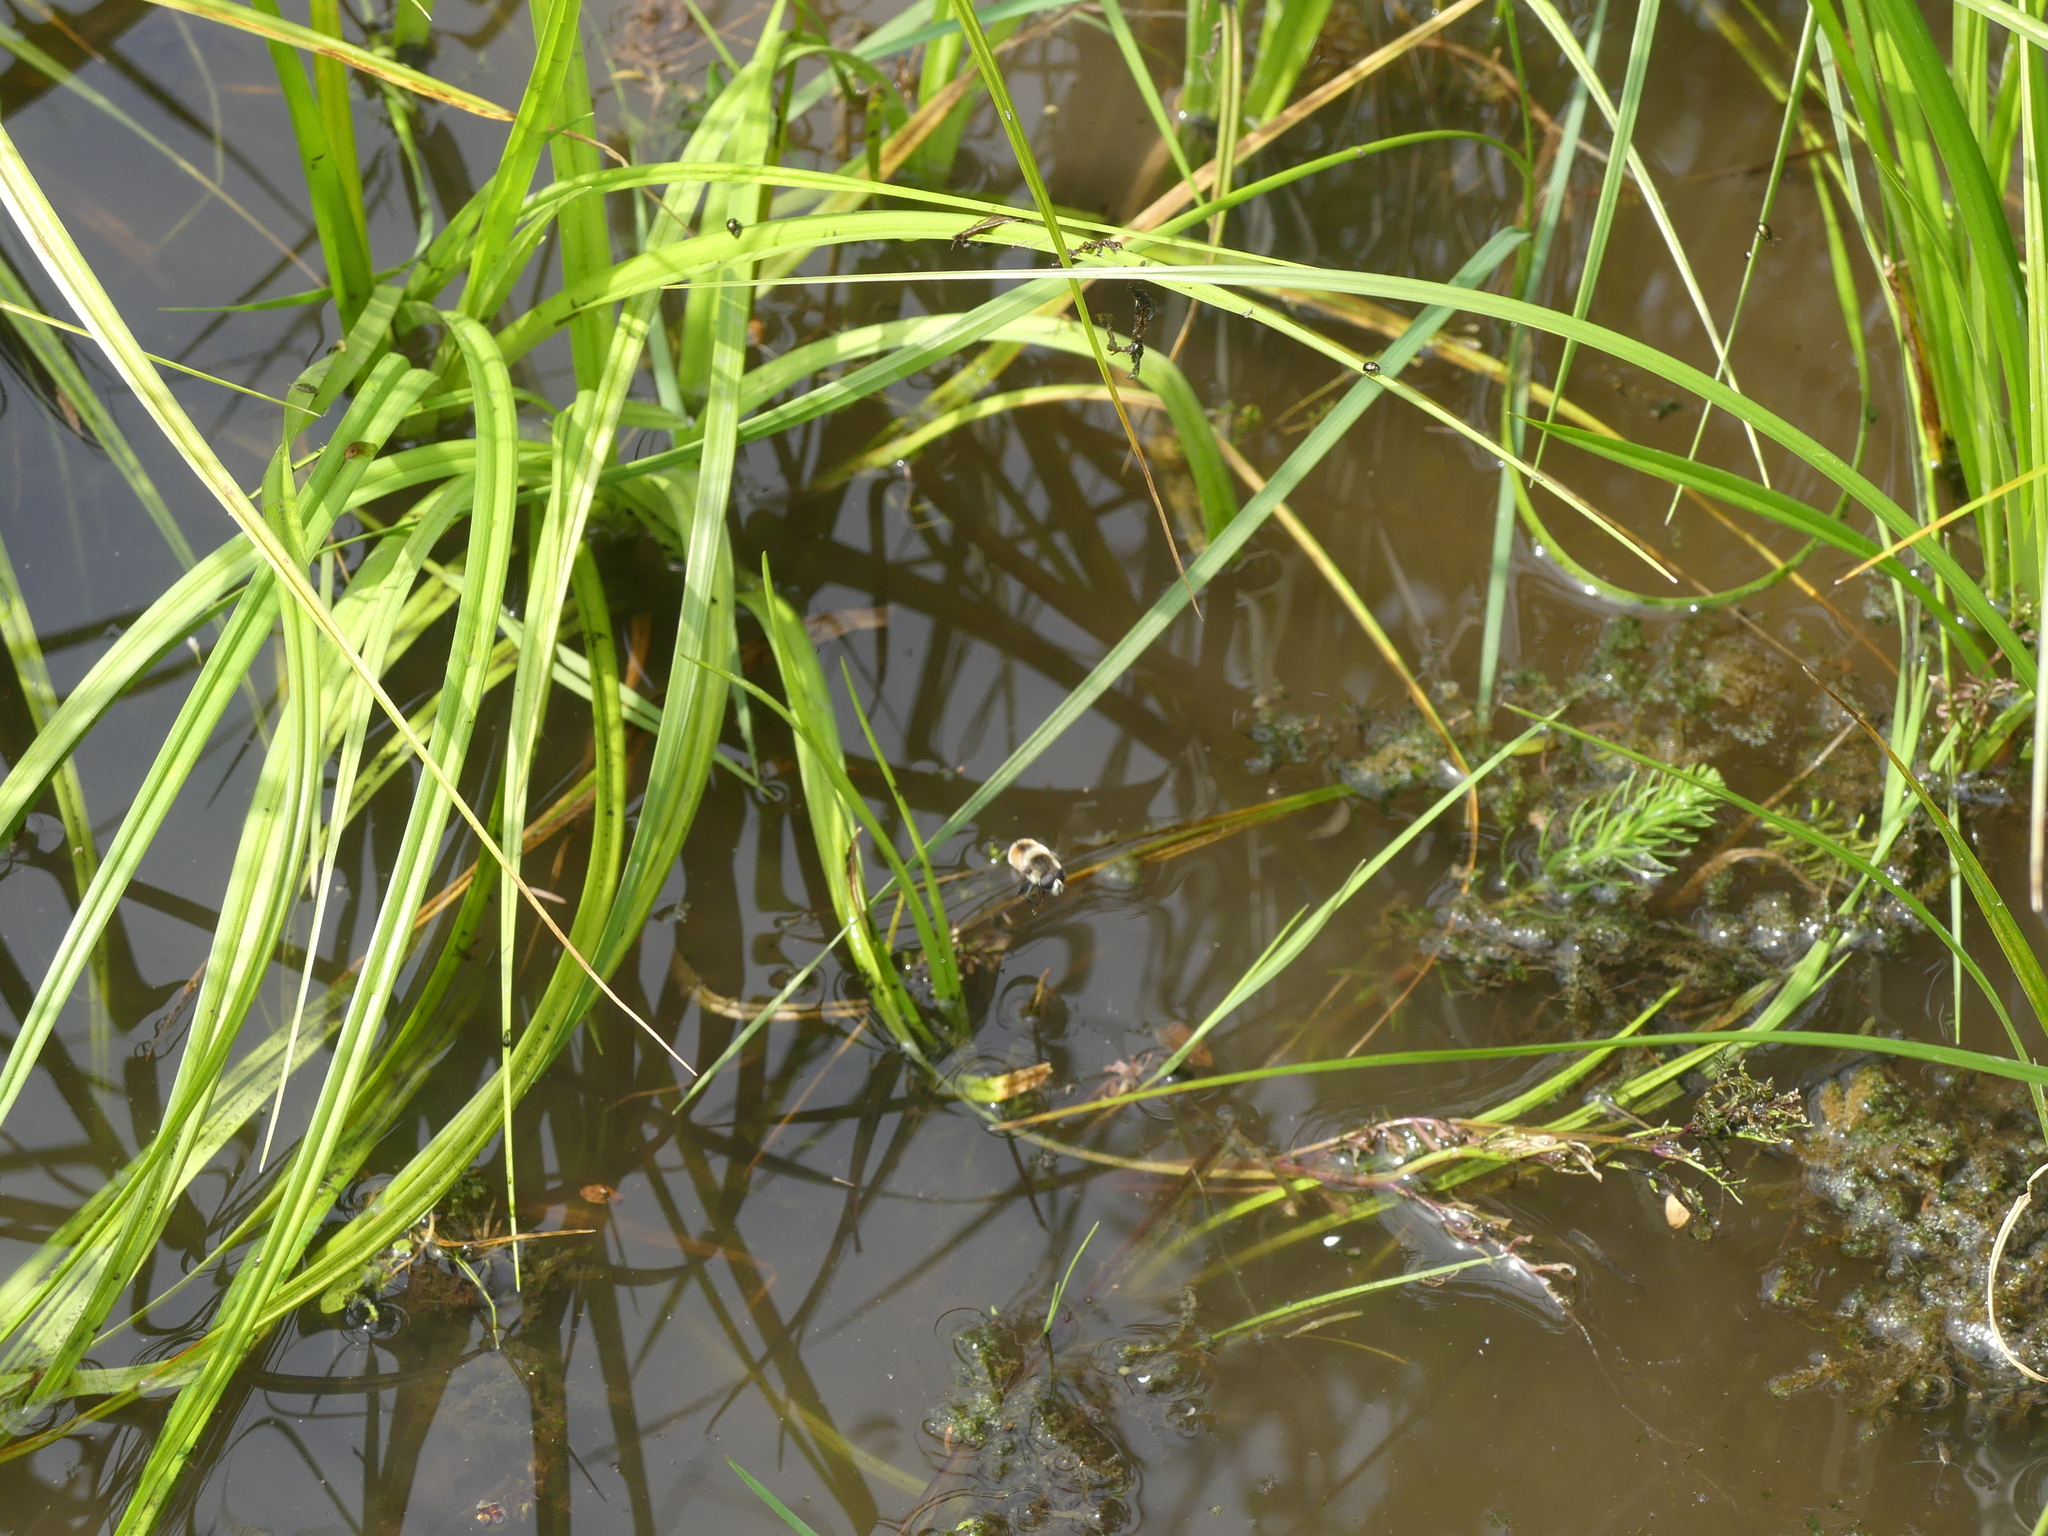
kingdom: Animalia
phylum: Arthropoda
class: Insecta
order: Diptera
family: Syrphidae
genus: Eristalis
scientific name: Eristalis anthophorina
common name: Orange-spotted drone fly
